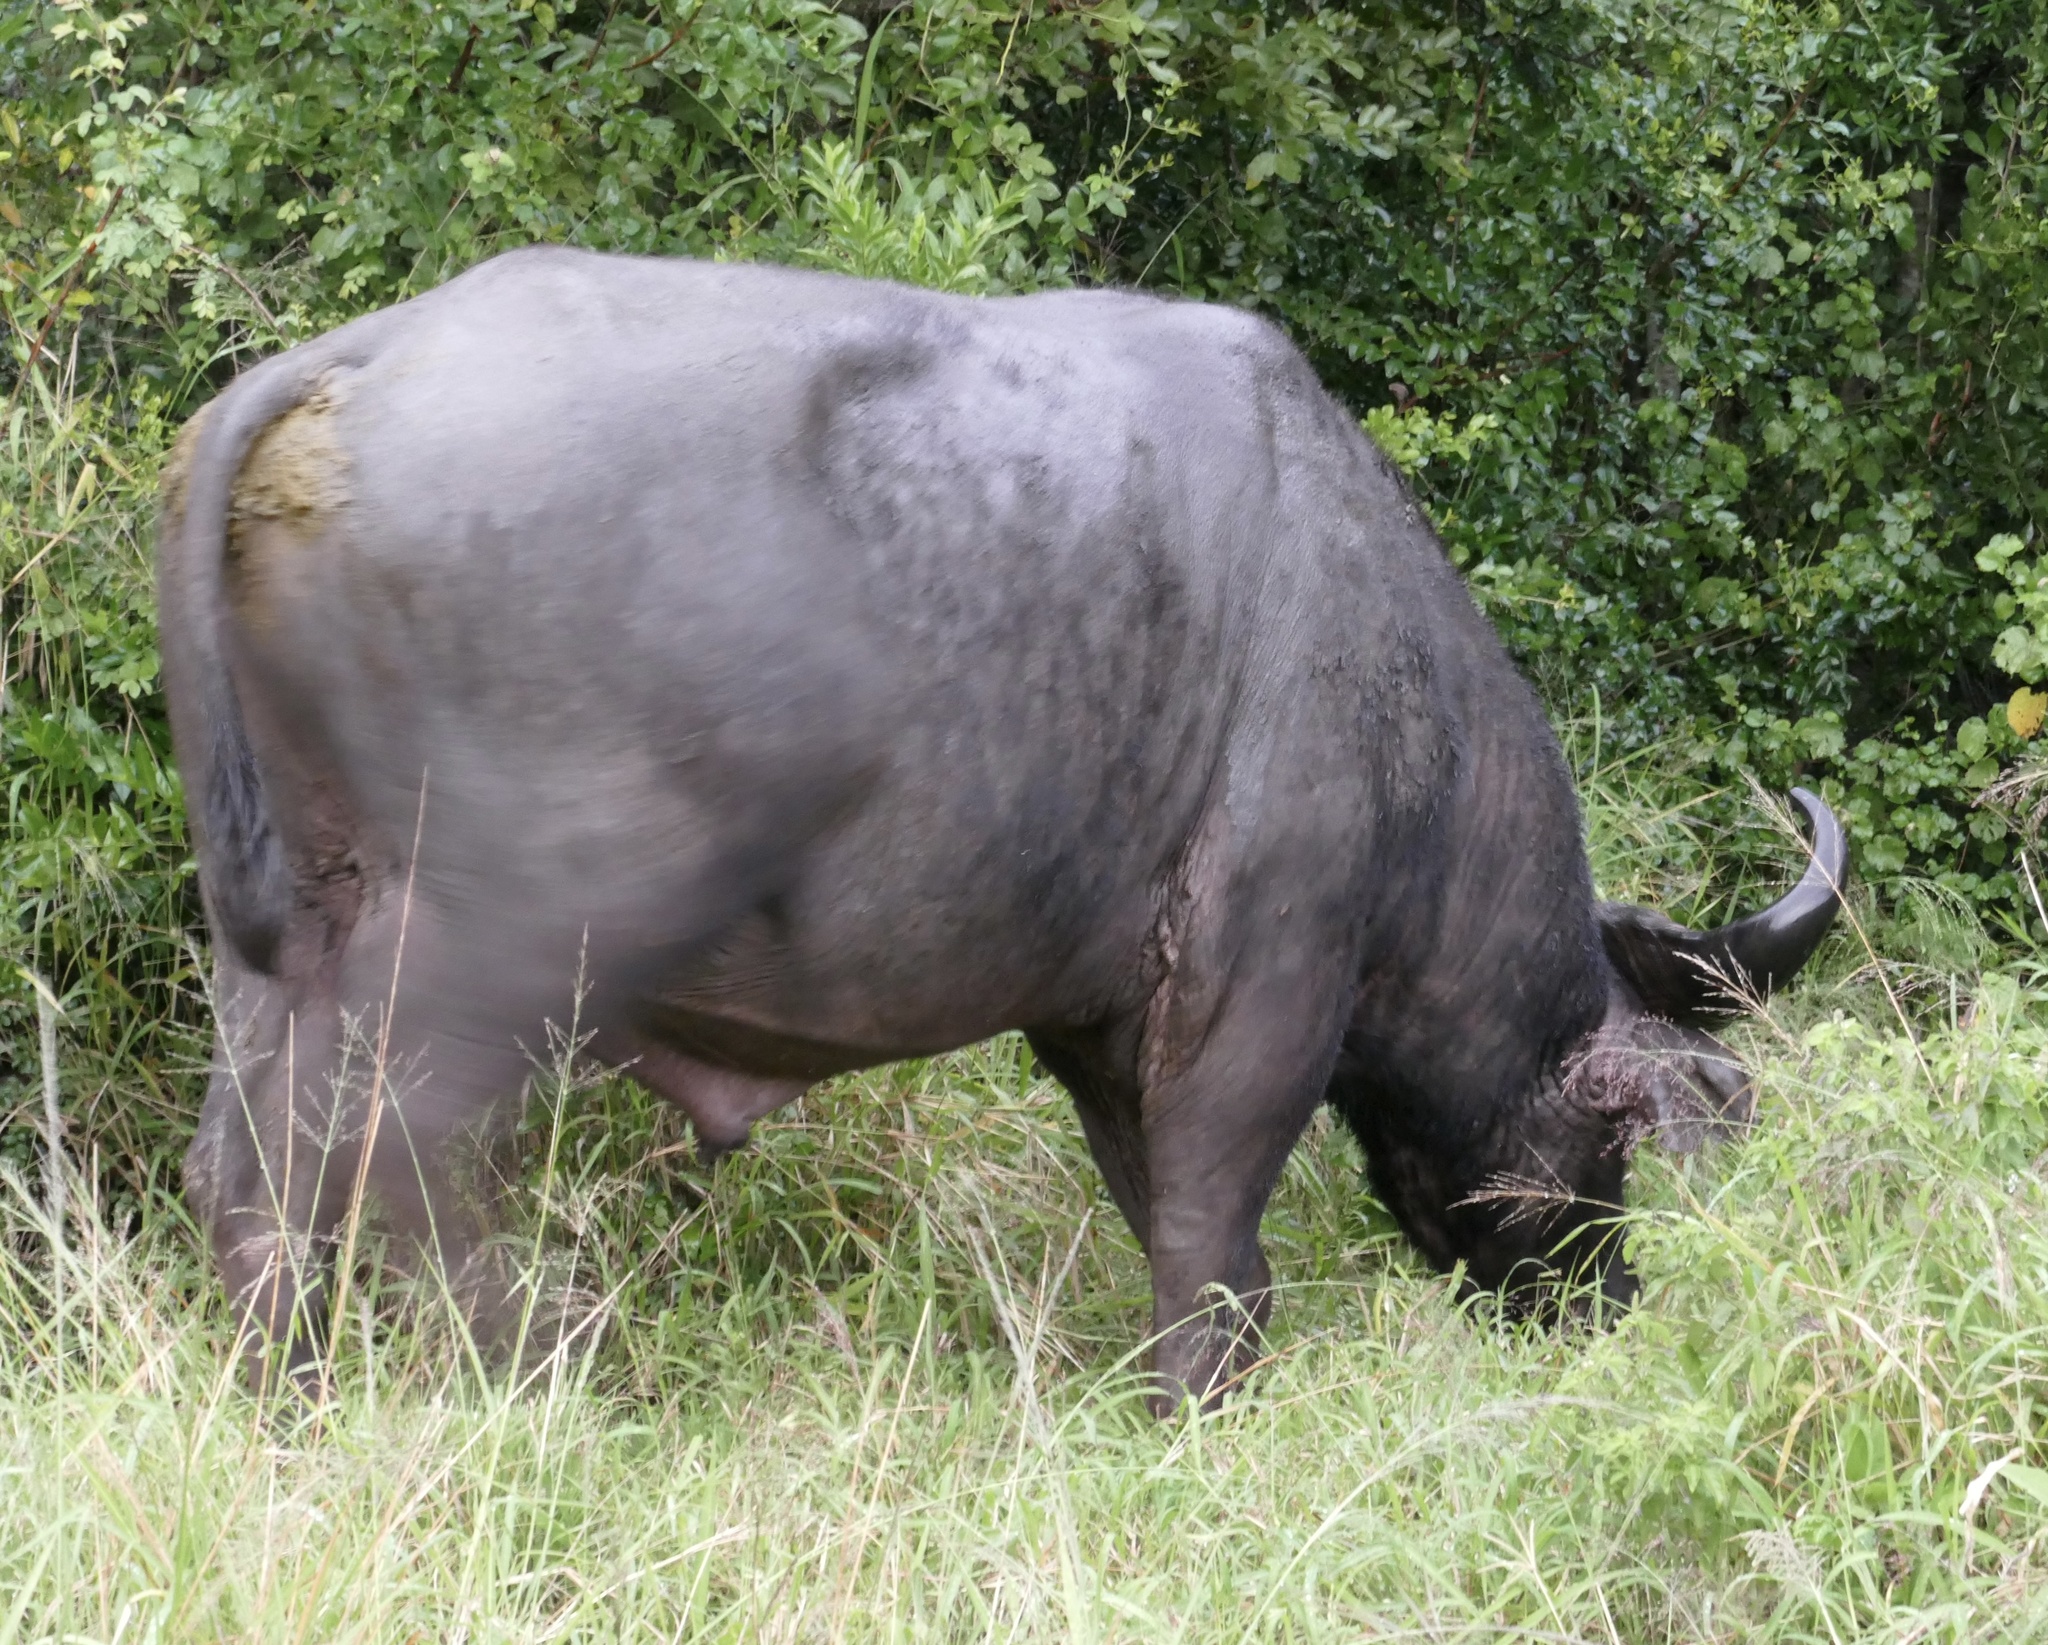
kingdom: Animalia
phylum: Chordata
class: Mammalia
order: Artiodactyla
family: Bovidae
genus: Syncerus
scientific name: Syncerus caffer
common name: African buffalo
